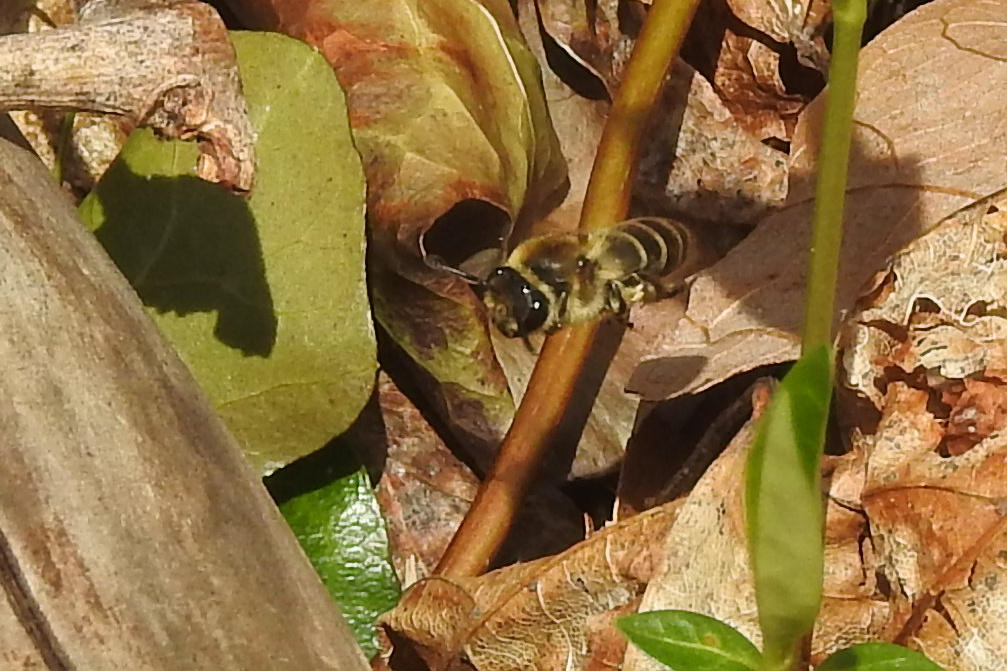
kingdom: Animalia
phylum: Arthropoda
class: Insecta
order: Hymenoptera
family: Colletidae
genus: Colletes
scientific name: Colletes inaequalis
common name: Unequal cellophane bee
